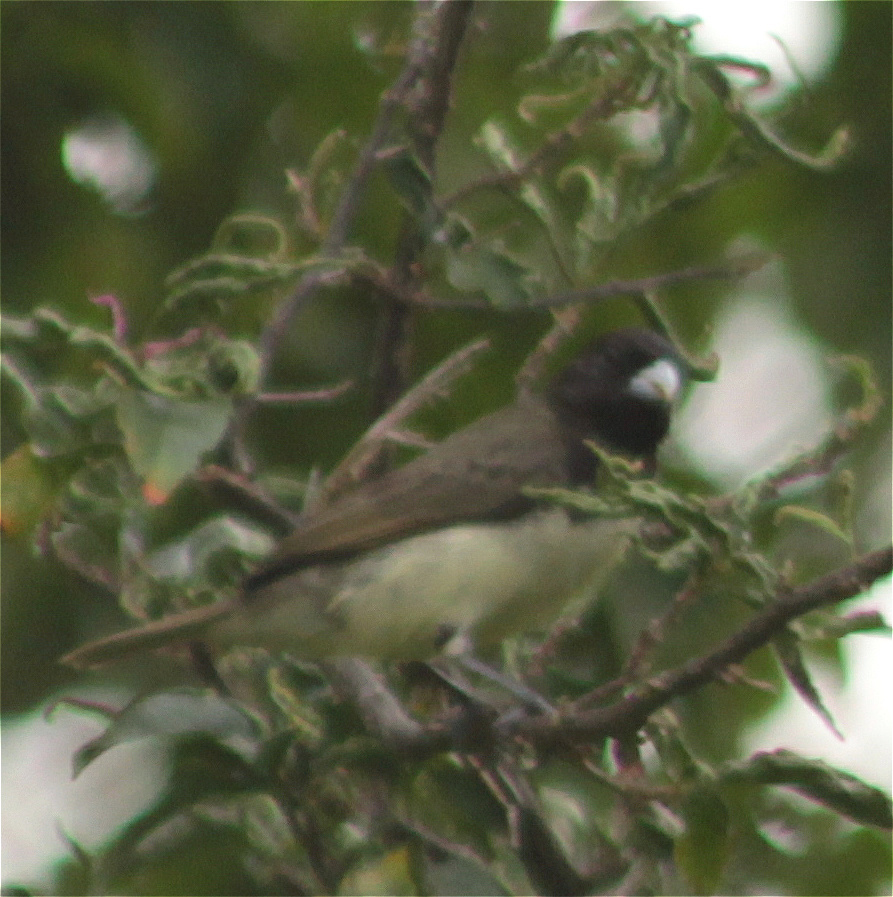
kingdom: Animalia
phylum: Chordata
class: Aves
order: Passeriformes
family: Thraupidae
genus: Sporophila
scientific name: Sporophila nigricollis
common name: Yellow-bellied seedeater
